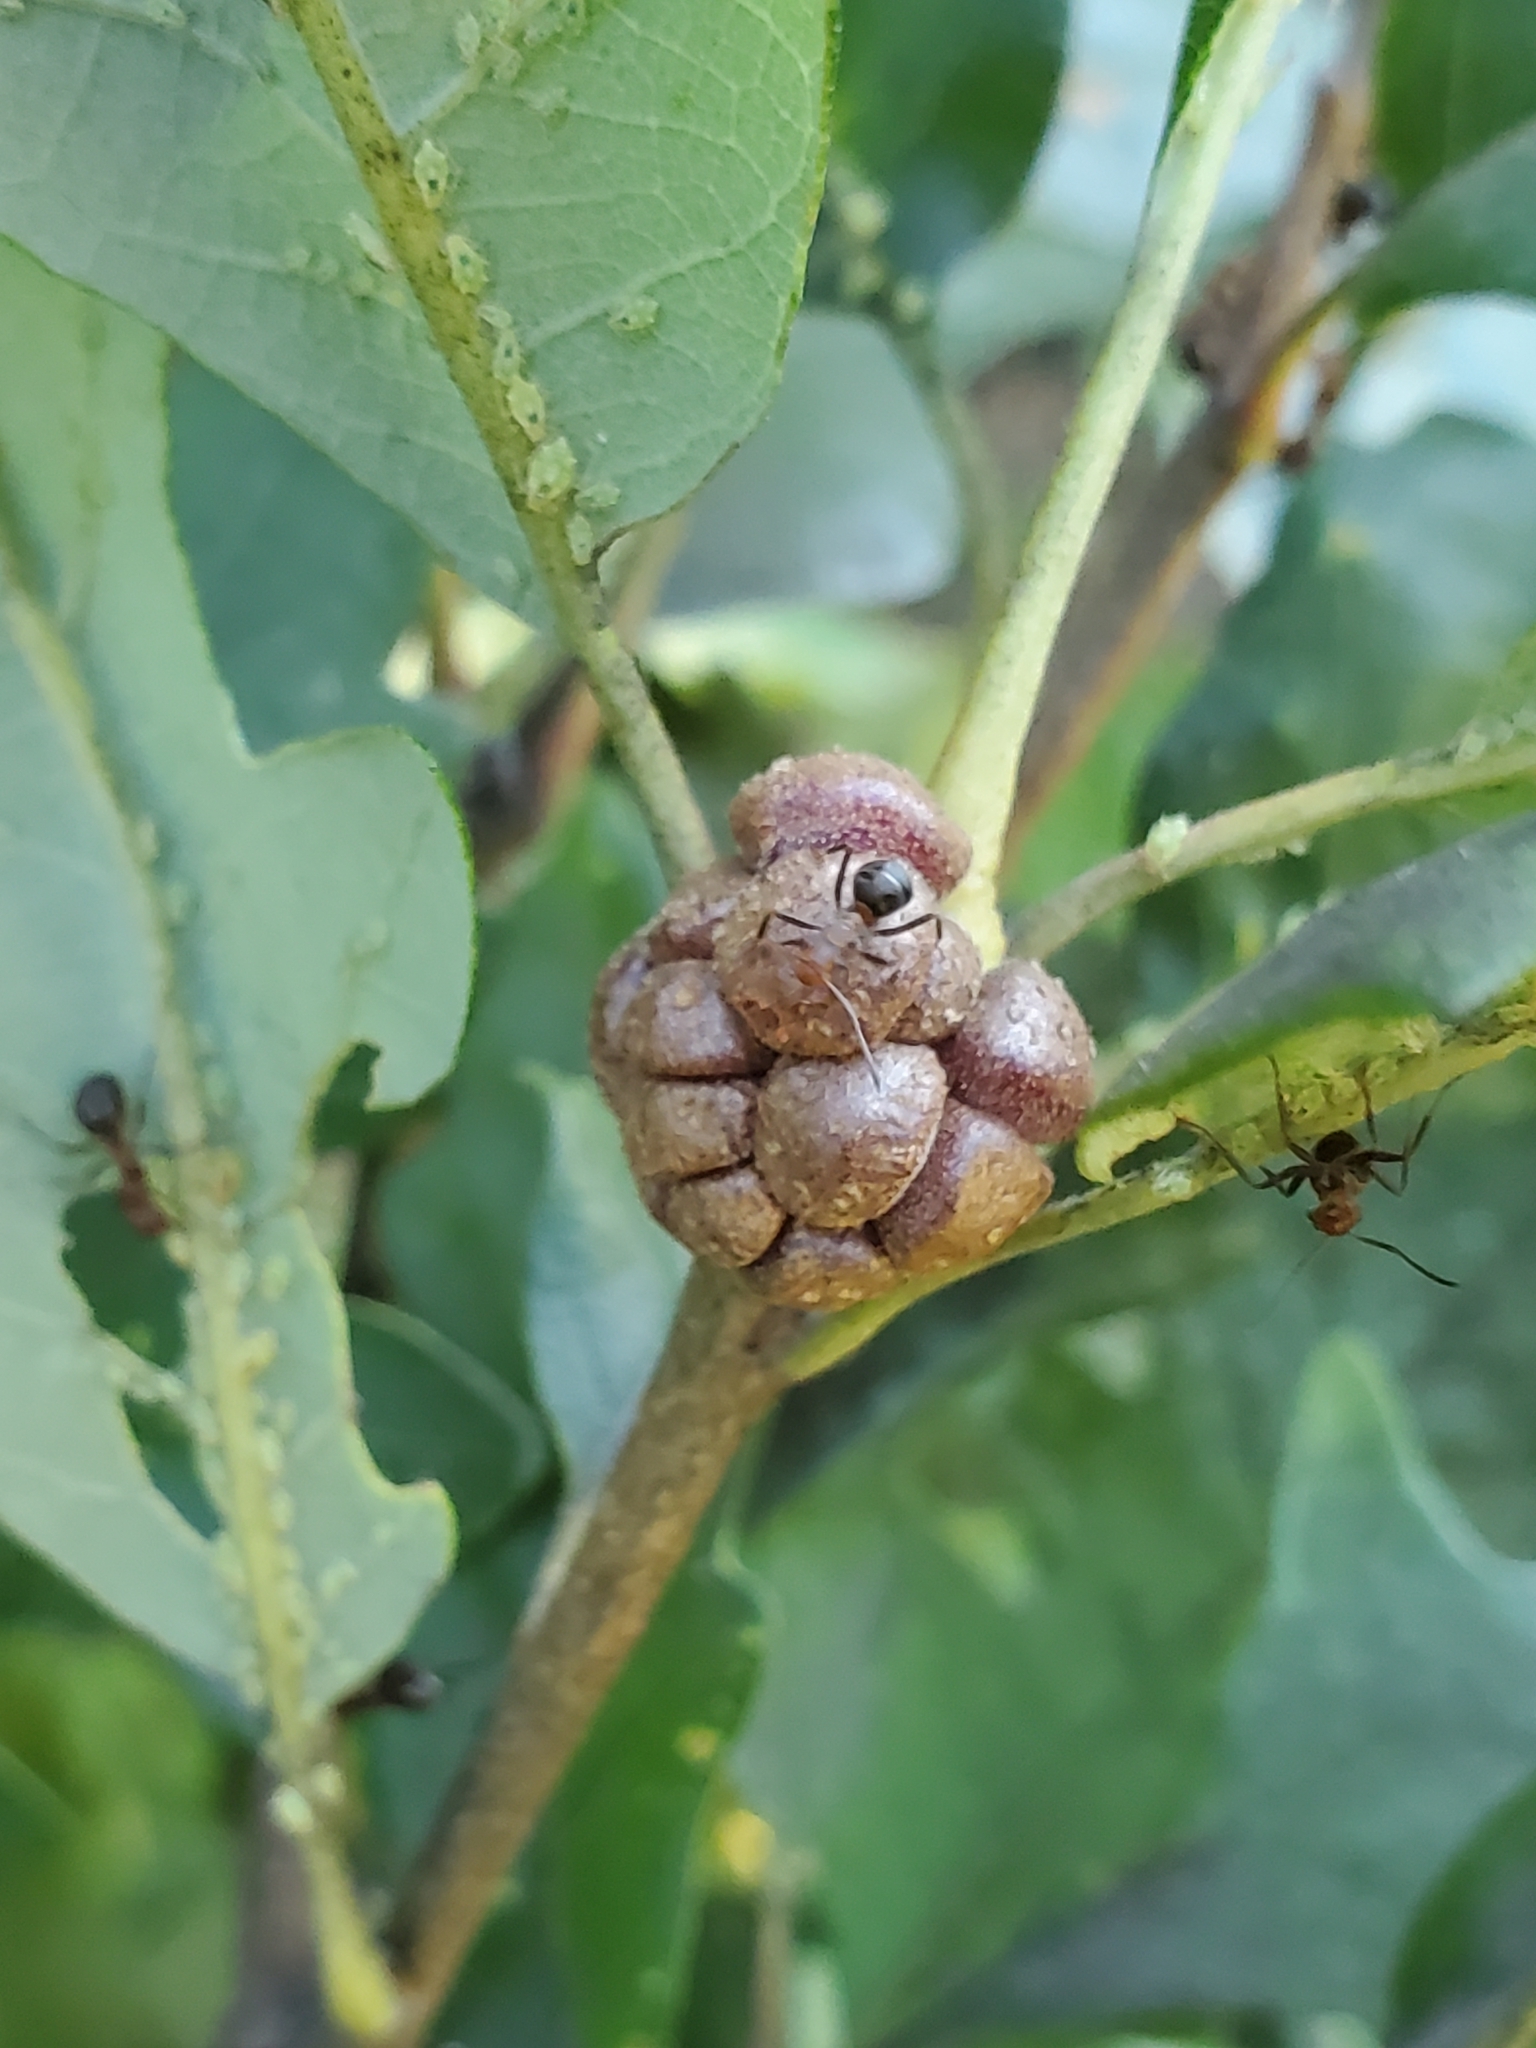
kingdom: Animalia
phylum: Arthropoda
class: Insecta
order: Hymenoptera
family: Cynipidae
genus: Andricus
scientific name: Andricus
